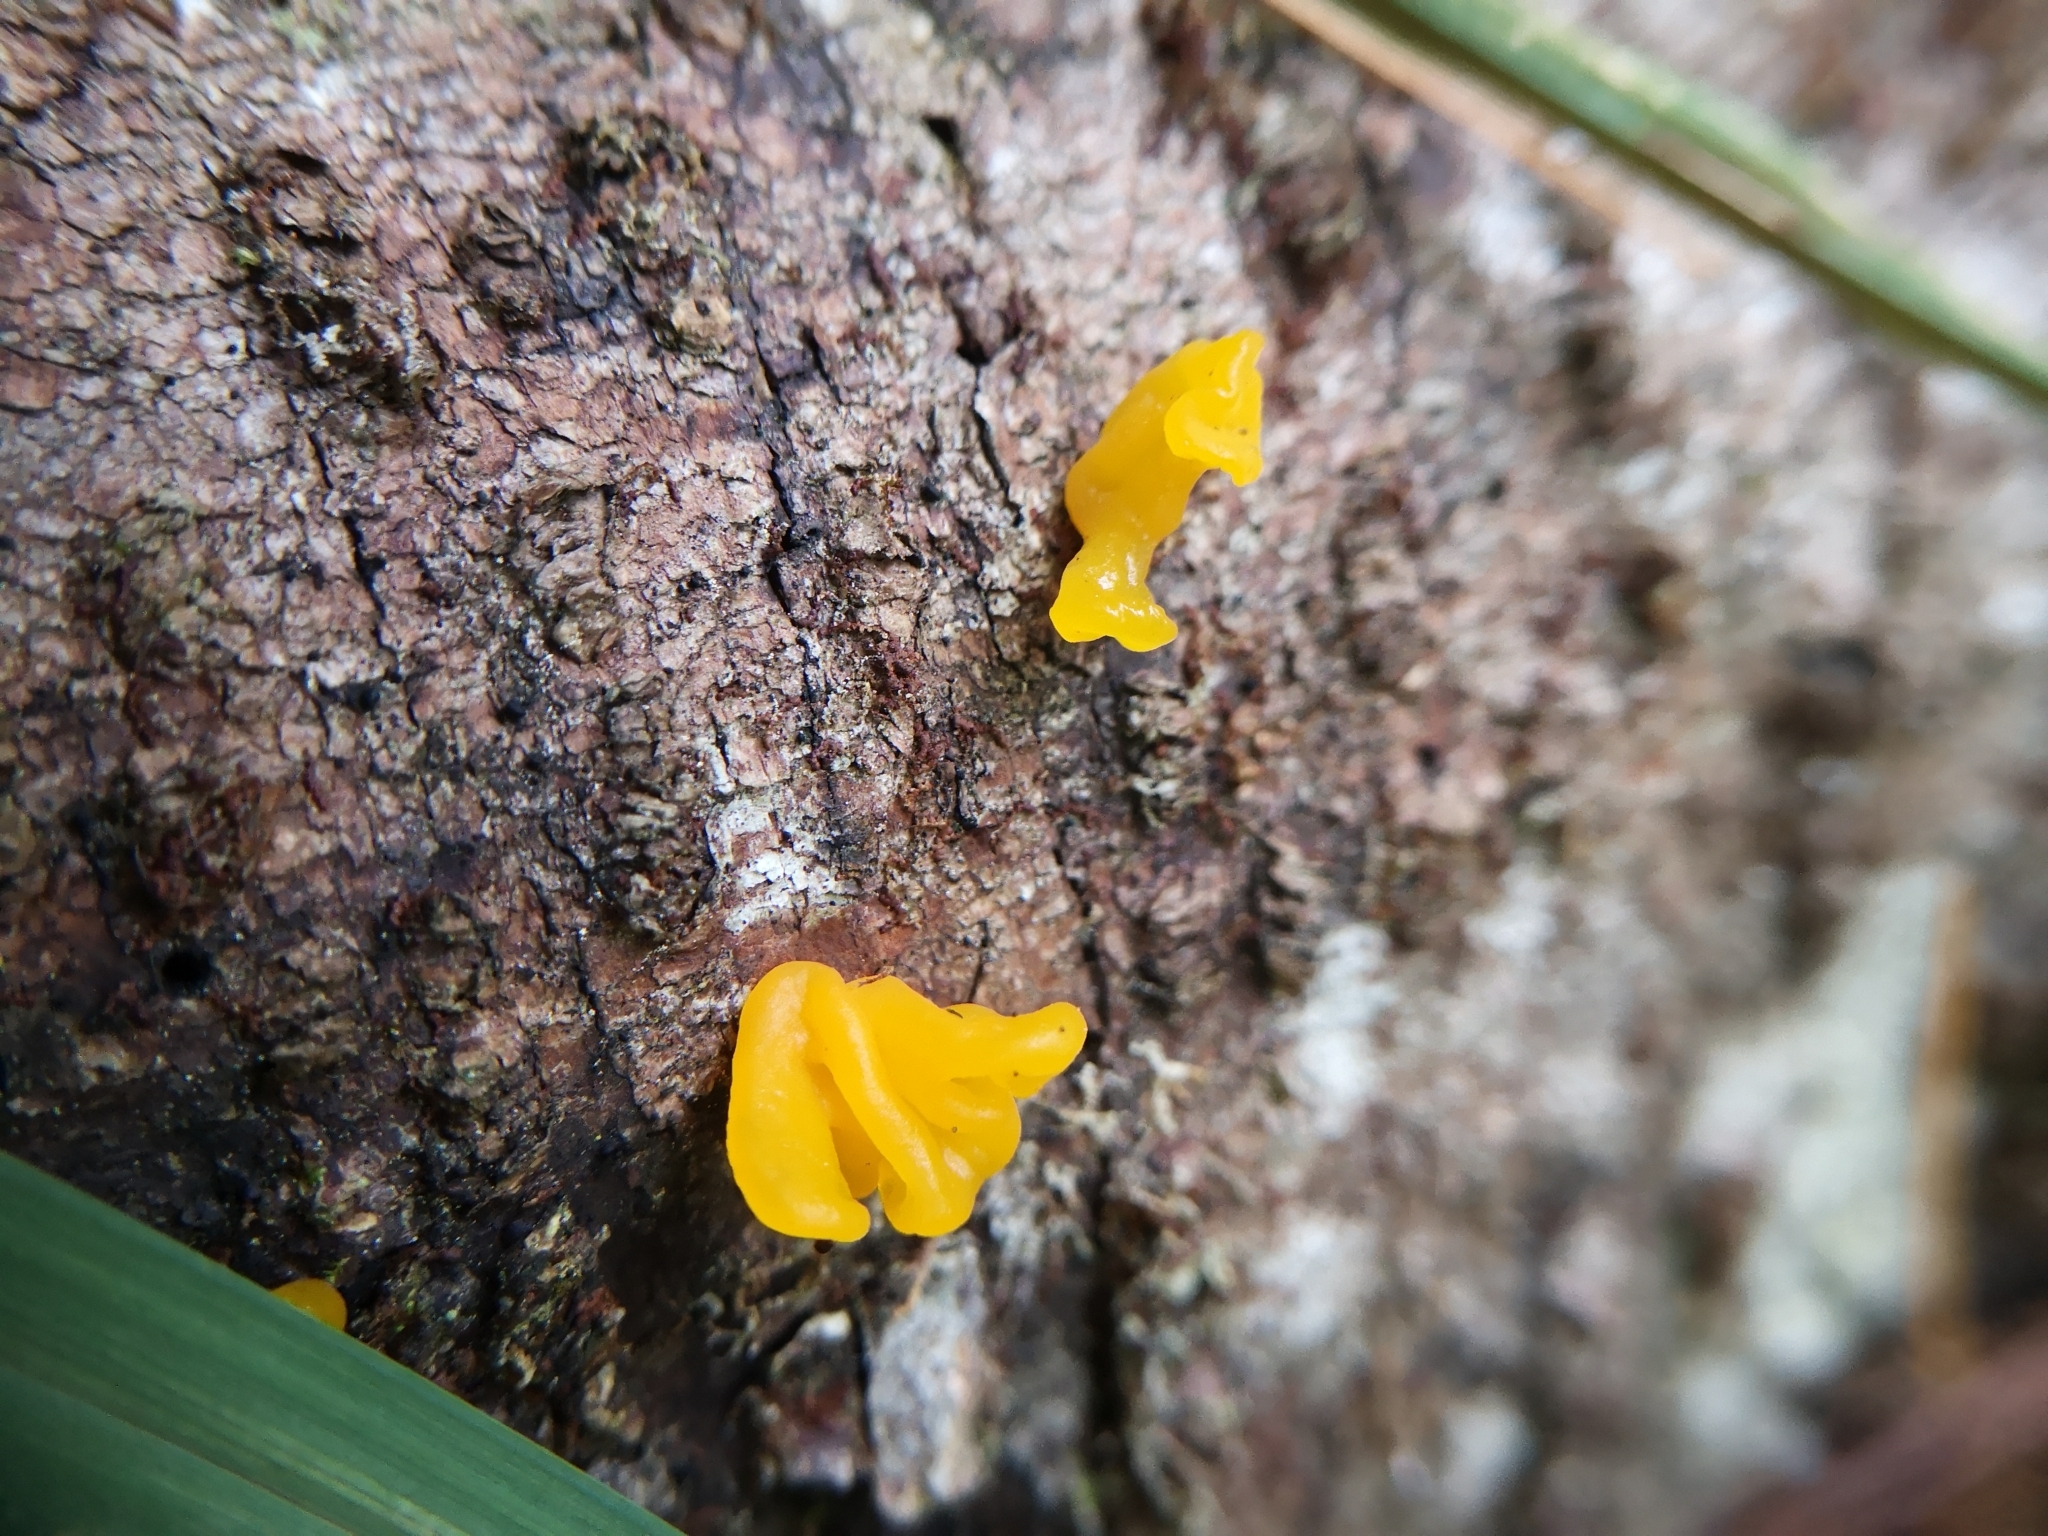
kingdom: Plantae
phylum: Tracheophyta
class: Magnoliopsida
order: Sapindales
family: Anacardiaceae
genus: Toxicodendron
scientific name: Toxicodendron rydbergii
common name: Rydberg's poison-ivy
